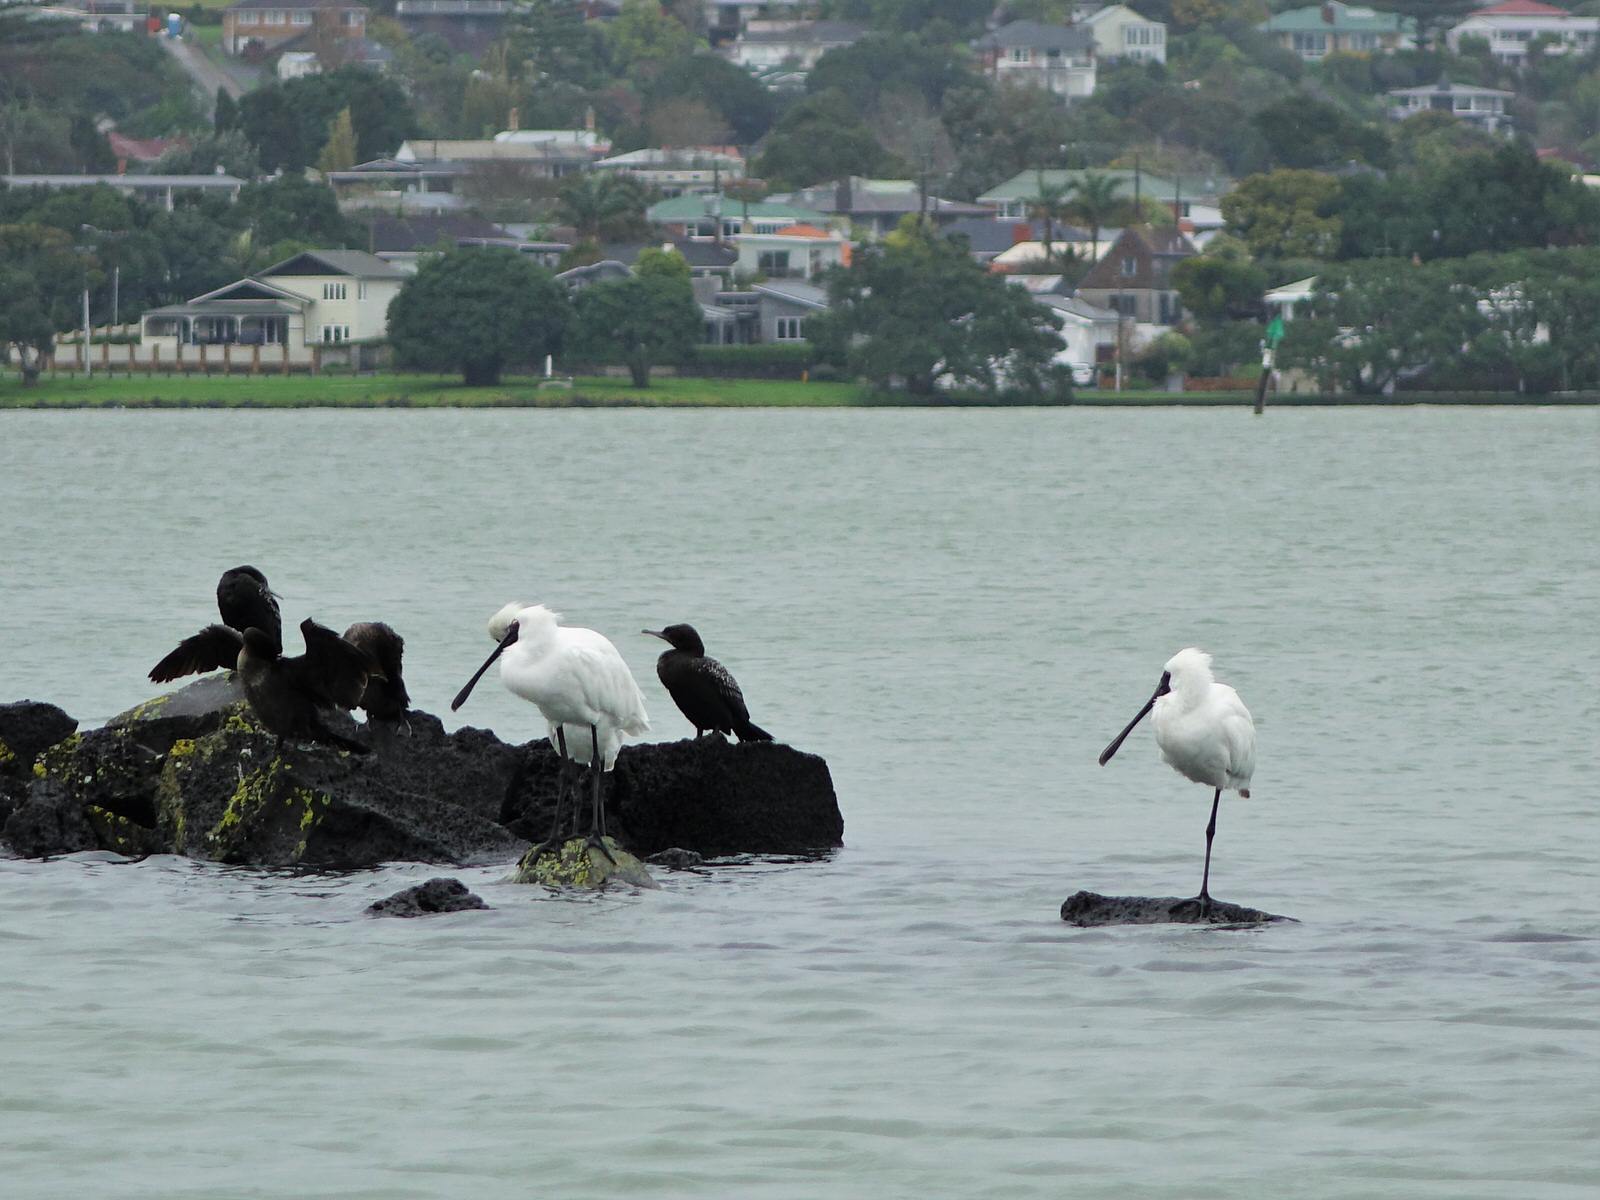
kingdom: Animalia
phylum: Chordata
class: Aves
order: Suliformes
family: Phalacrocoracidae
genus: Phalacrocorax
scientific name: Phalacrocorax sulcirostris
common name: Little black cormorant
